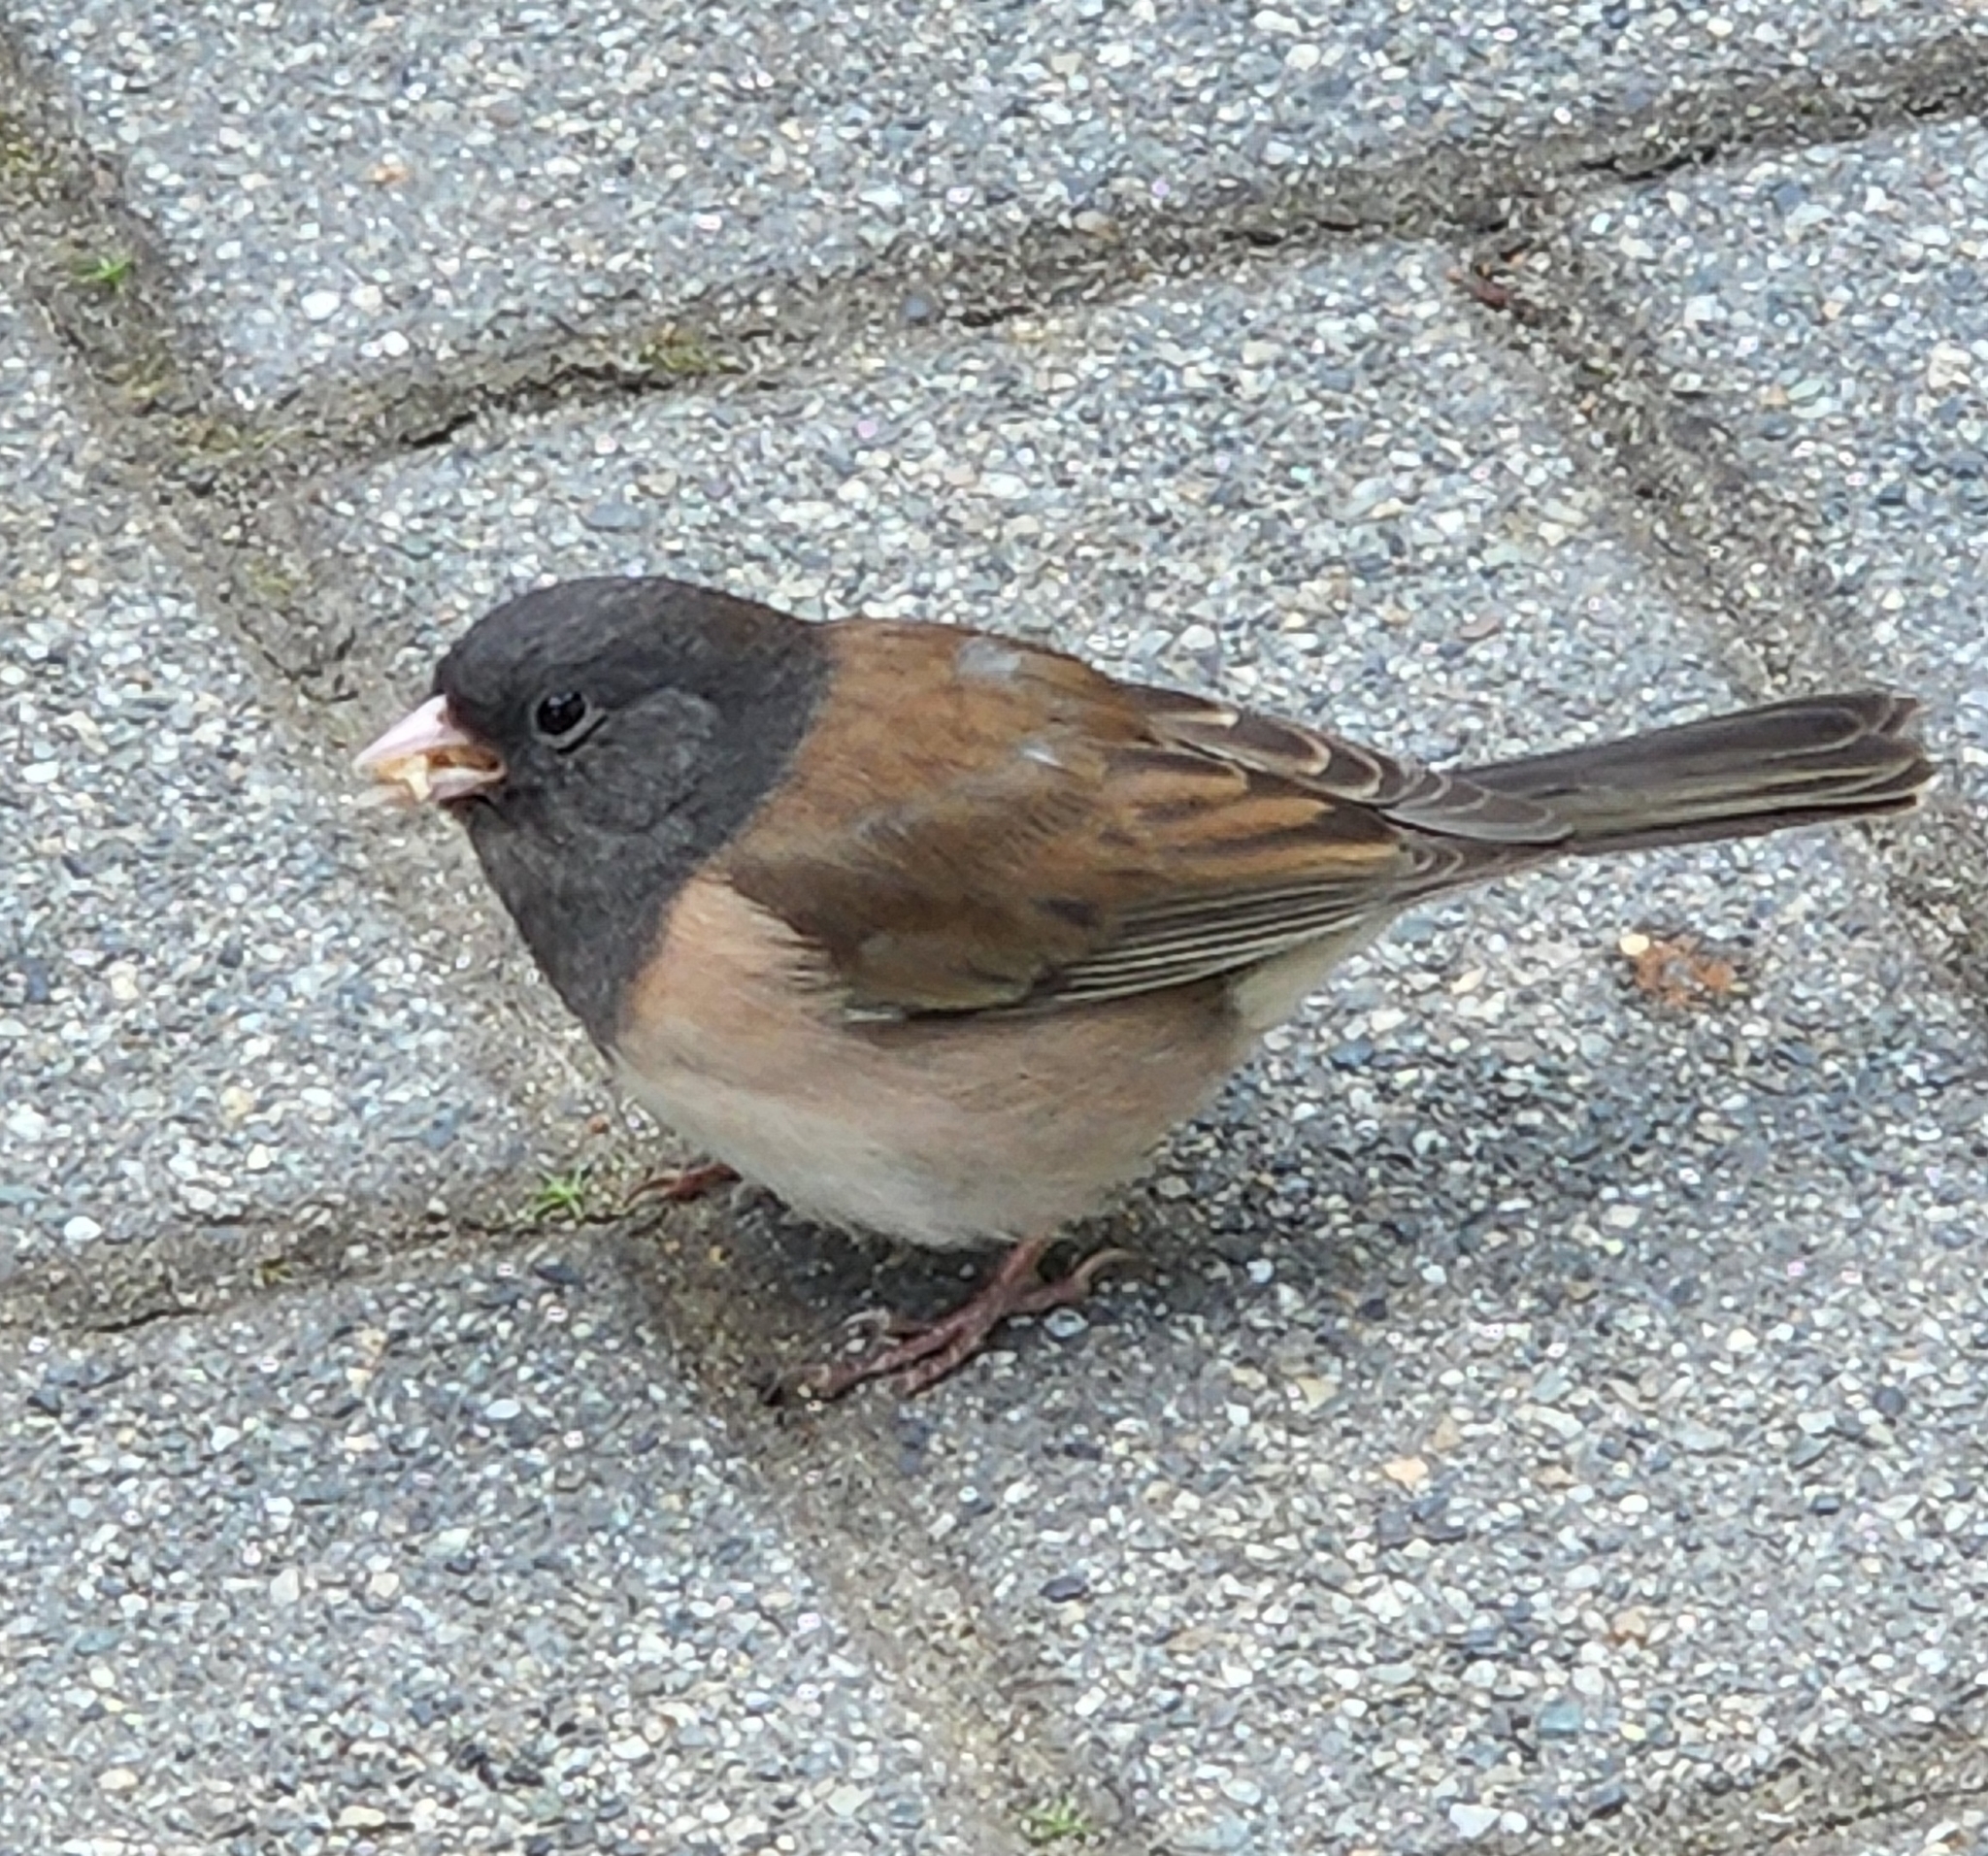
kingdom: Animalia
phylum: Chordata
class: Aves
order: Passeriformes
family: Passerellidae
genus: Junco
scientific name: Junco hyemalis
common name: Dark-eyed junco
